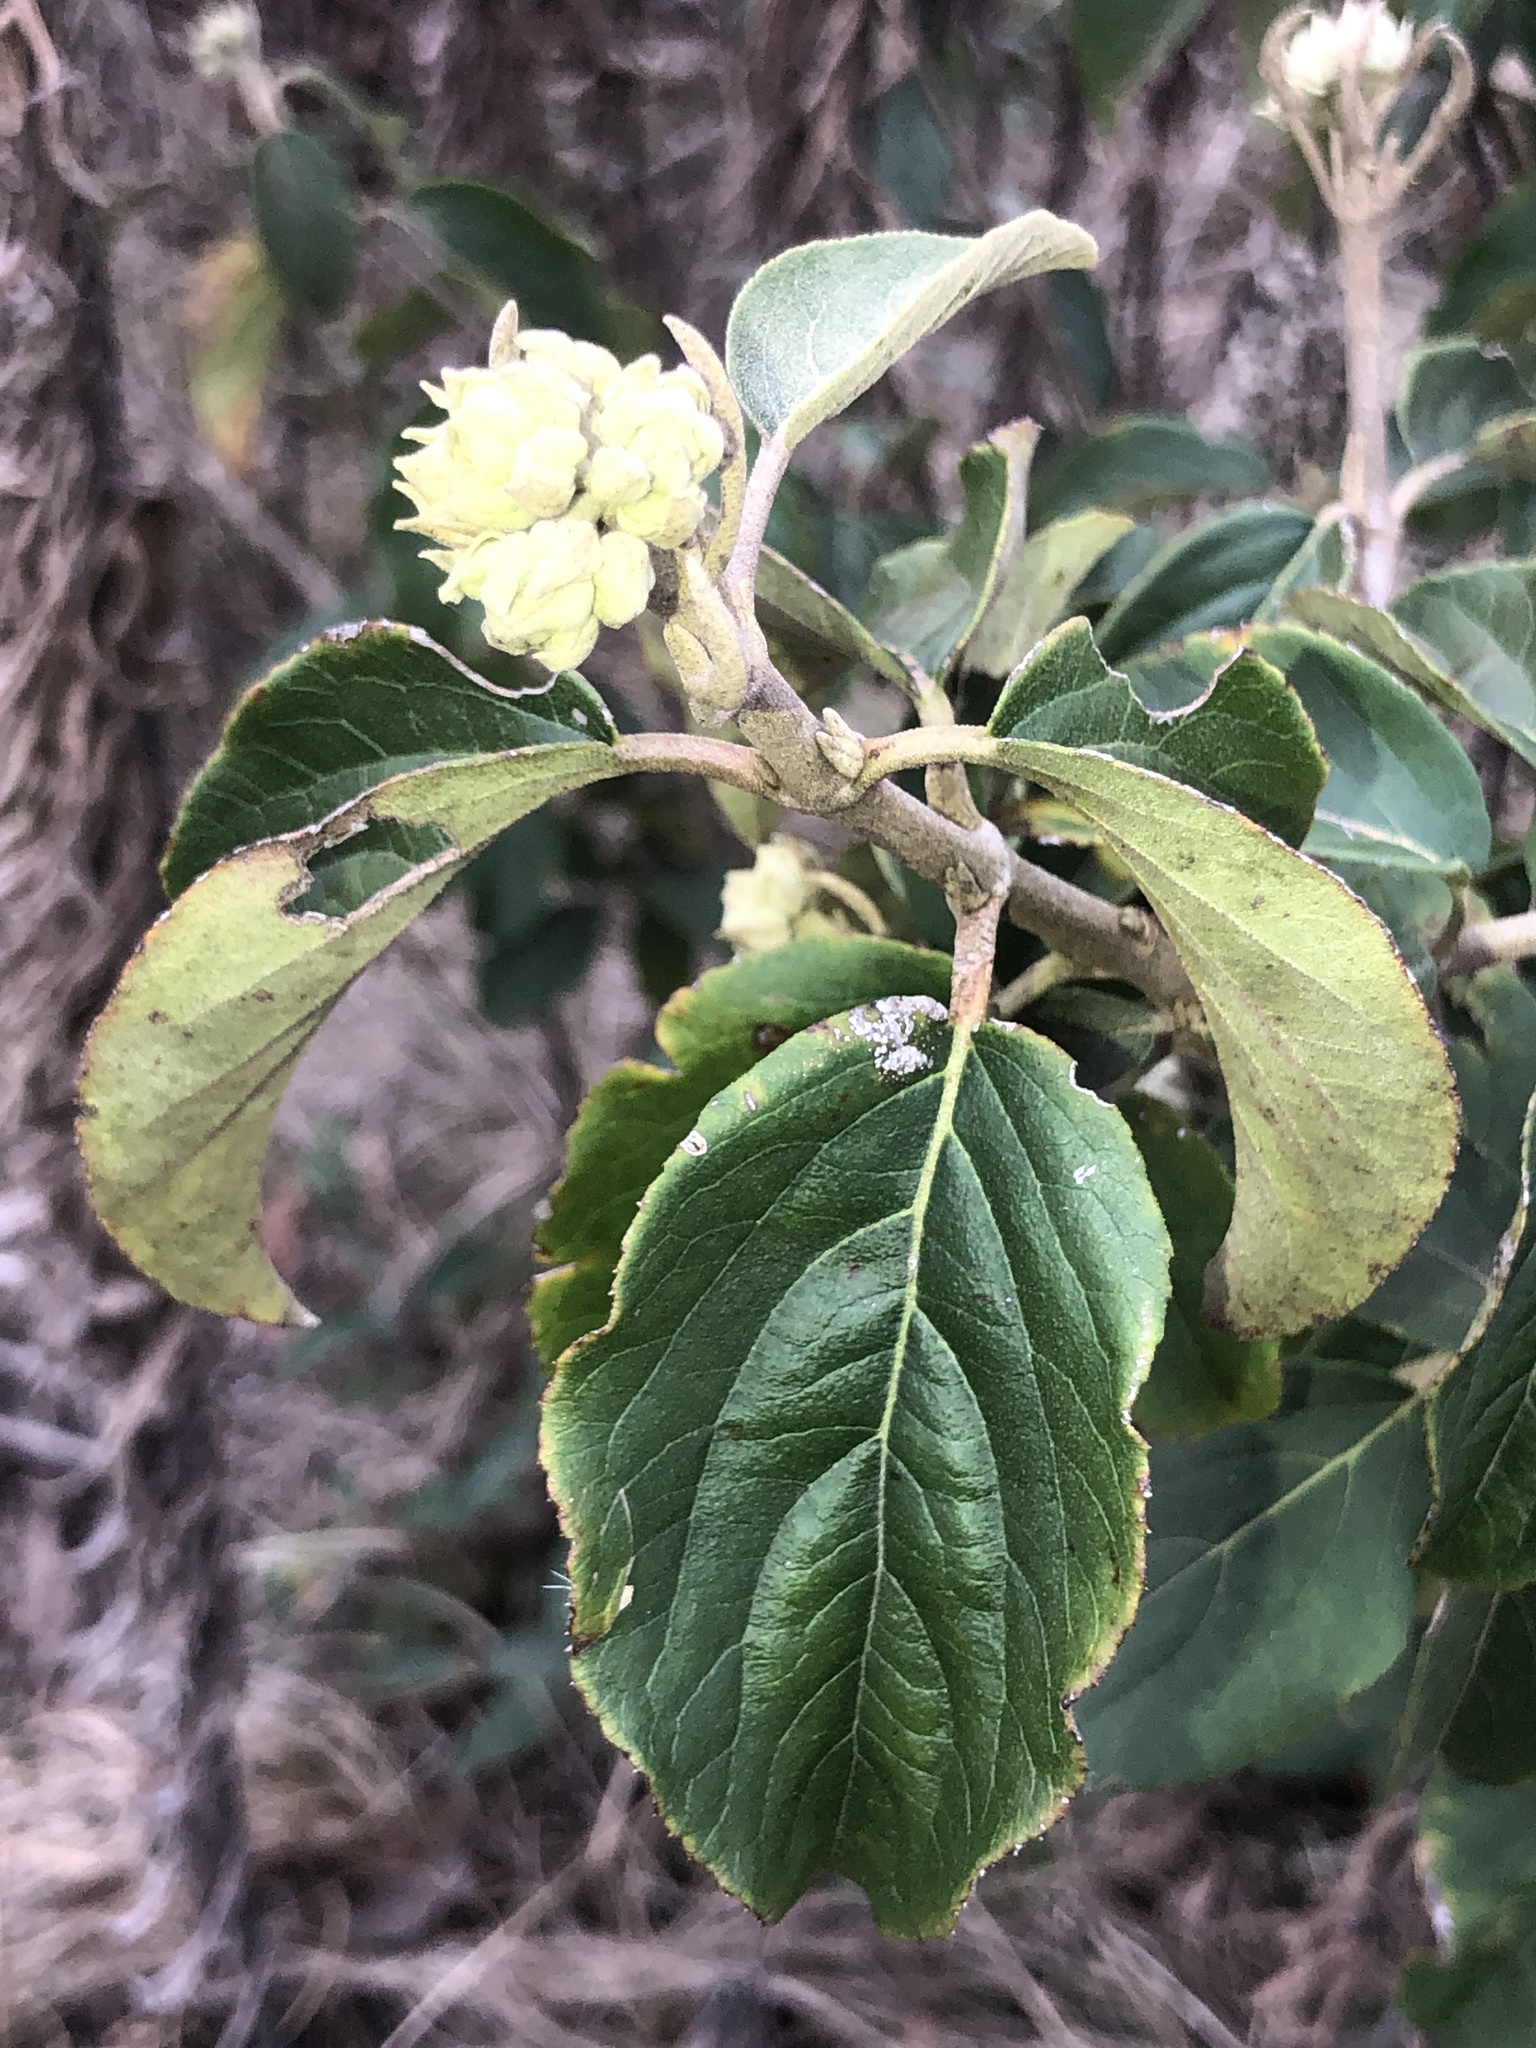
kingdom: Plantae
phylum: Tracheophyta
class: Magnoliopsida
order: Dipsacales
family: Viburnaceae
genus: Viburnum
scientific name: Viburnum macrocephalum
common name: Chinese snowball viburnum
